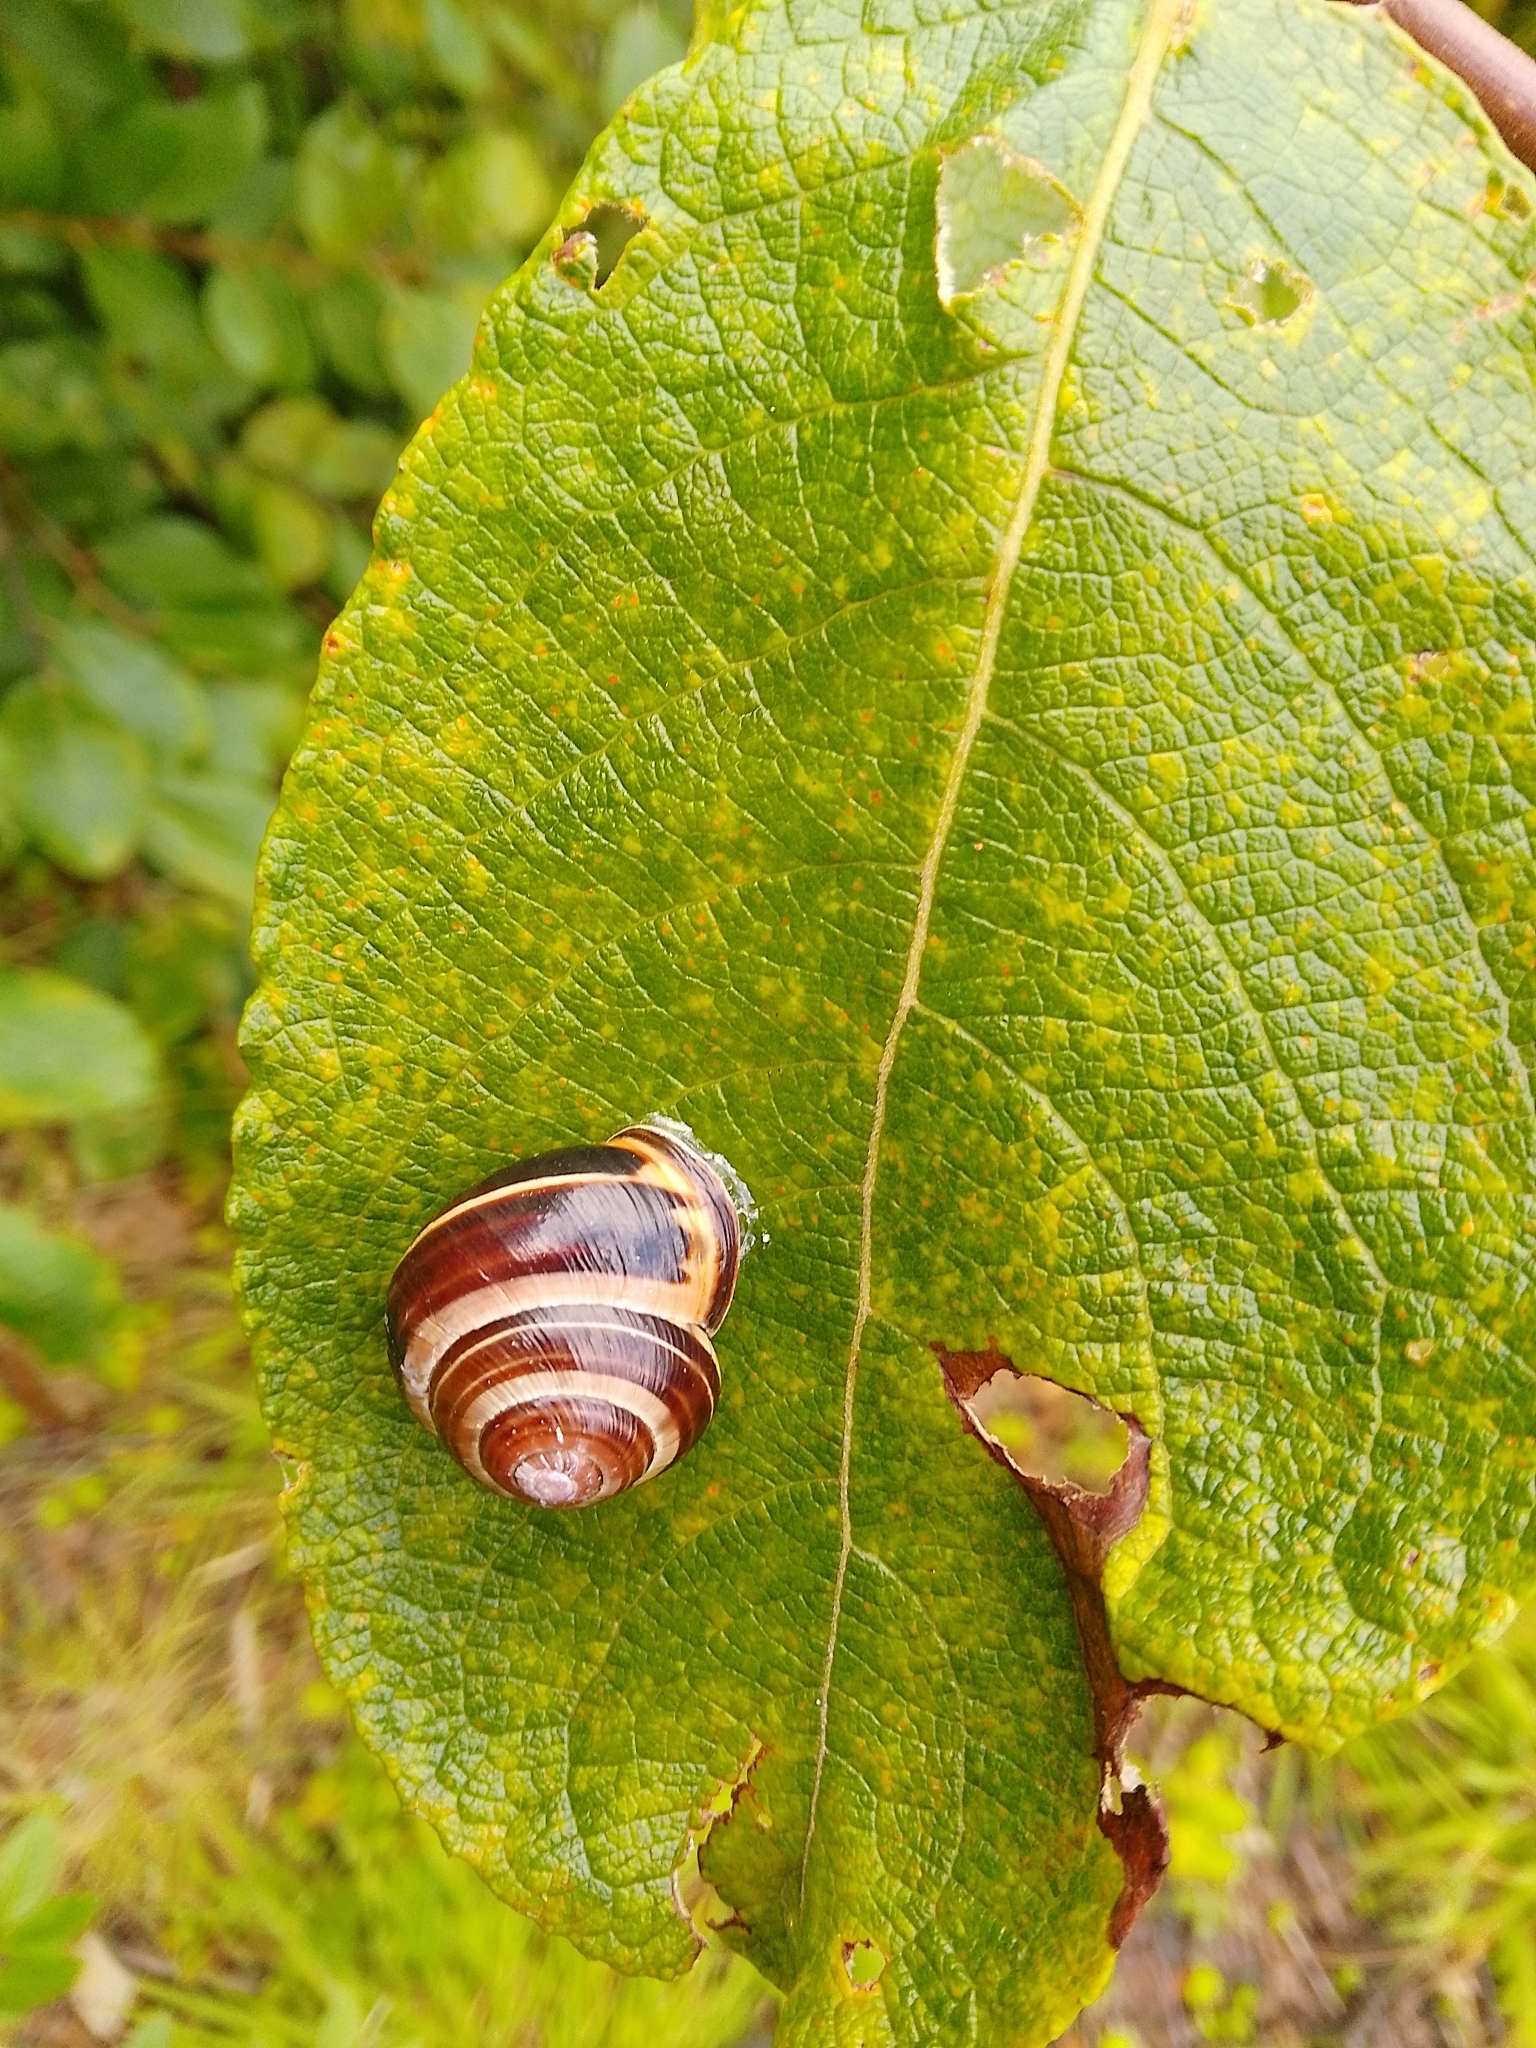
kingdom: Animalia
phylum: Mollusca
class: Gastropoda
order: Stylommatophora
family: Helicidae
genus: Cepaea
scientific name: Cepaea nemoralis
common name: Grovesnail
